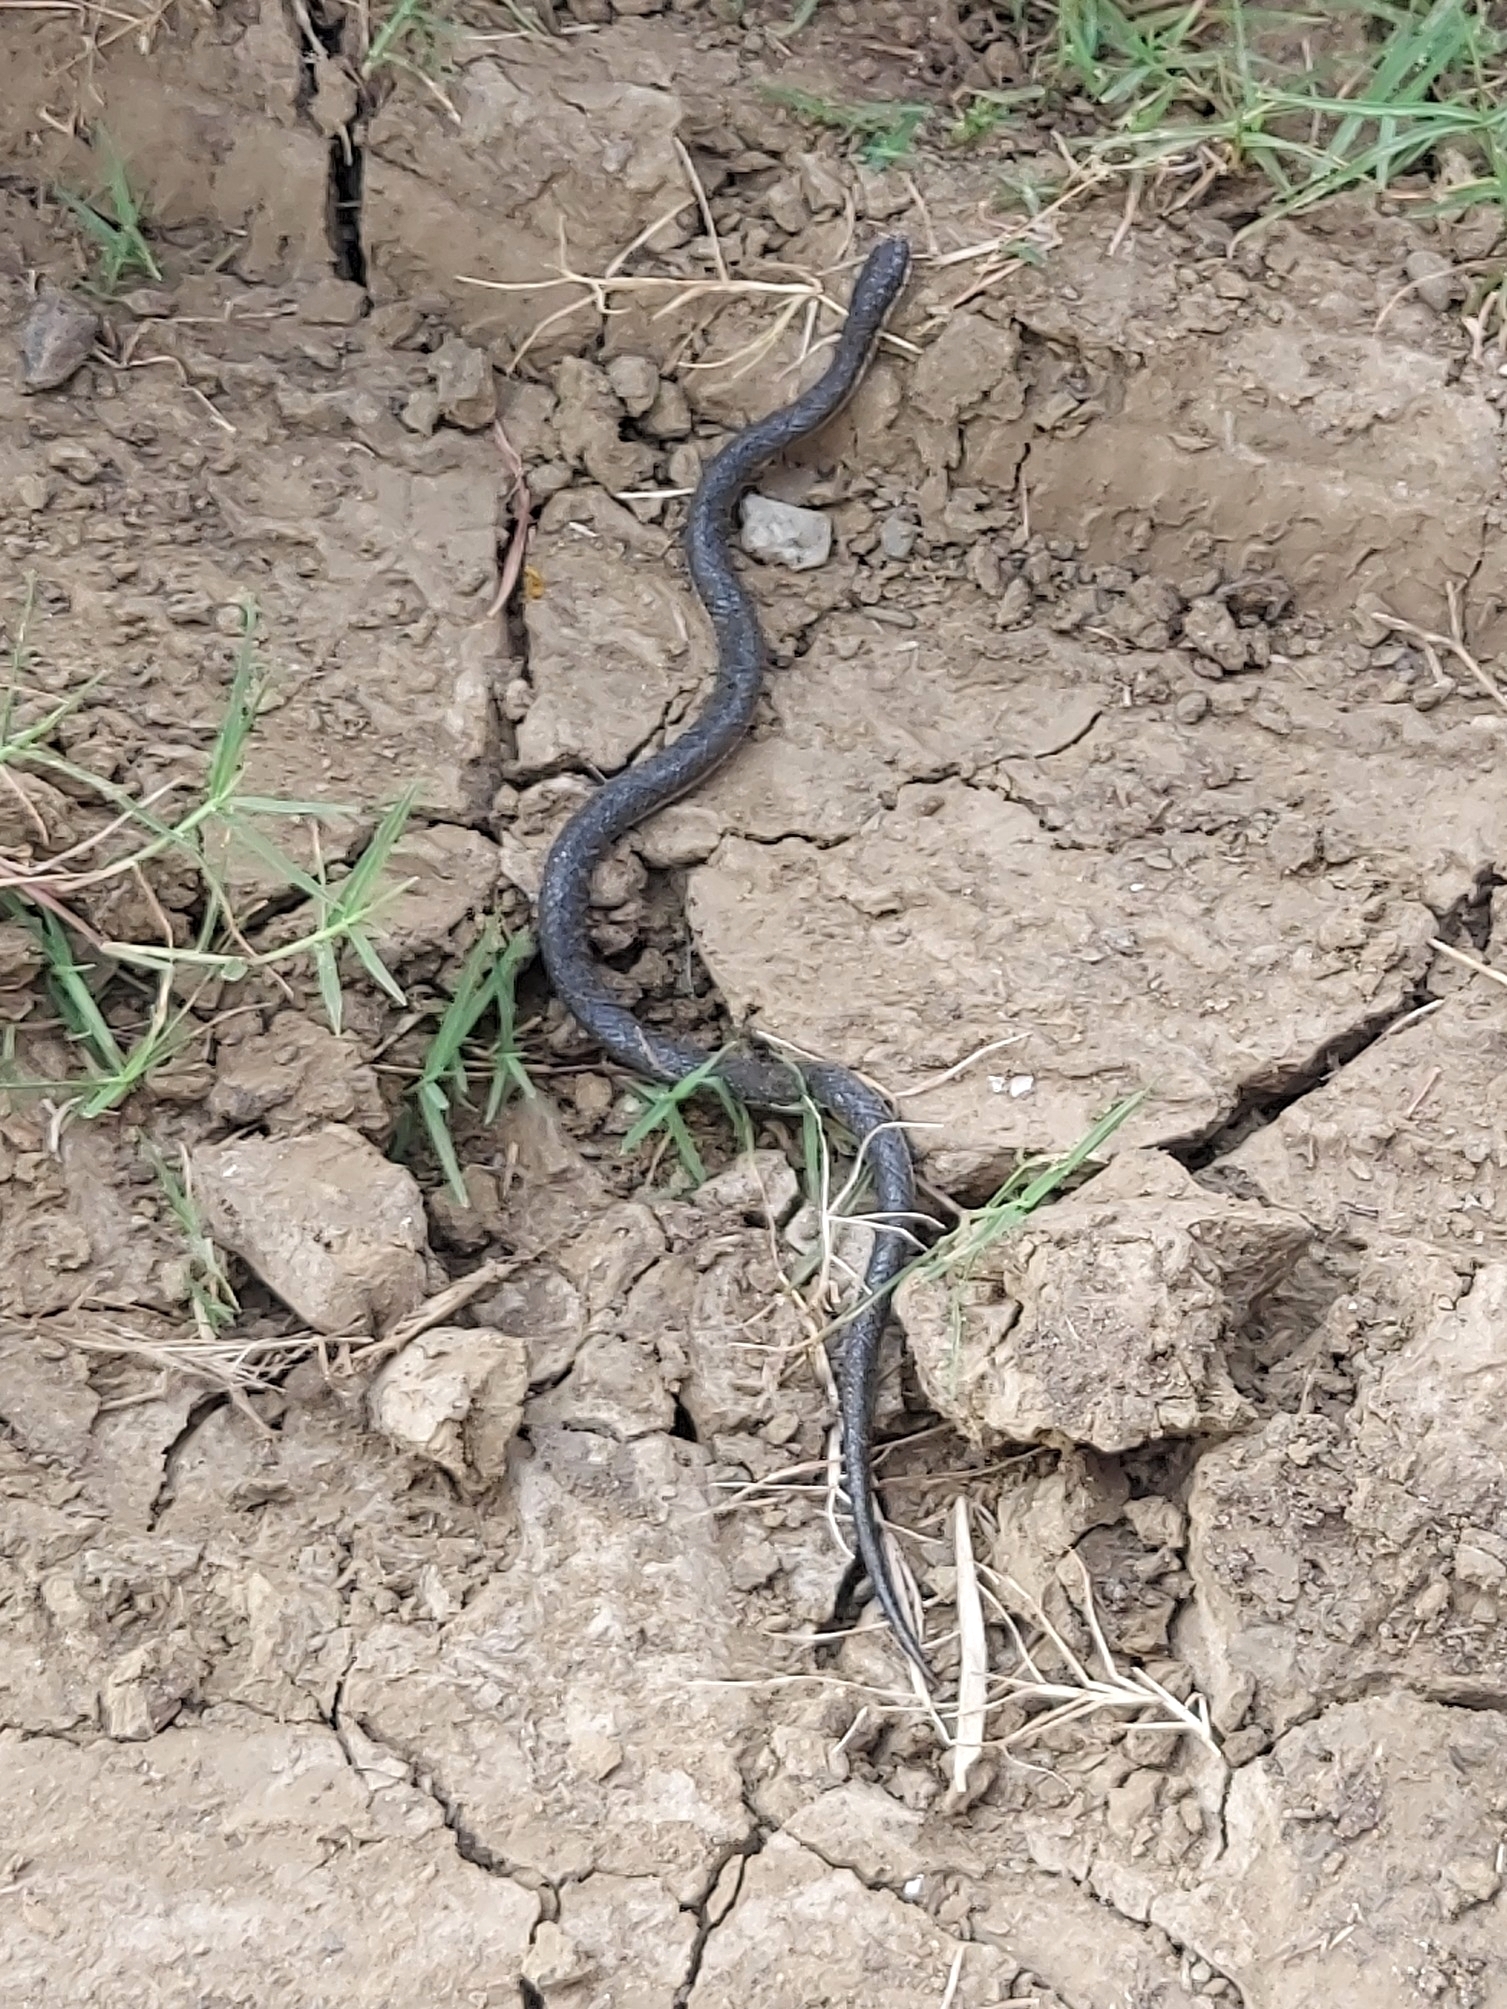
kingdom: Animalia
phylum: Chordata
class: Squamata
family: Homalopsidae
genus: Gerarda
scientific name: Gerarda prevostiana
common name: Cat-eyed water snake
